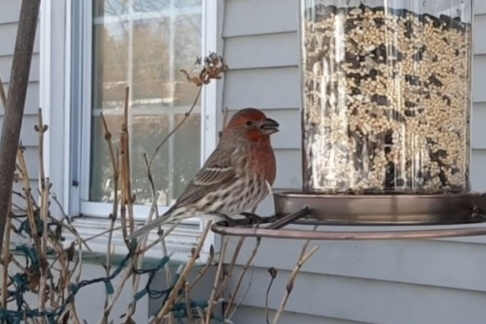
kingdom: Animalia
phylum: Chordata
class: Aves
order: Passeriformes
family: Fringillidae
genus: Haemorhous
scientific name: Haemorhous mexicanus
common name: House finch
